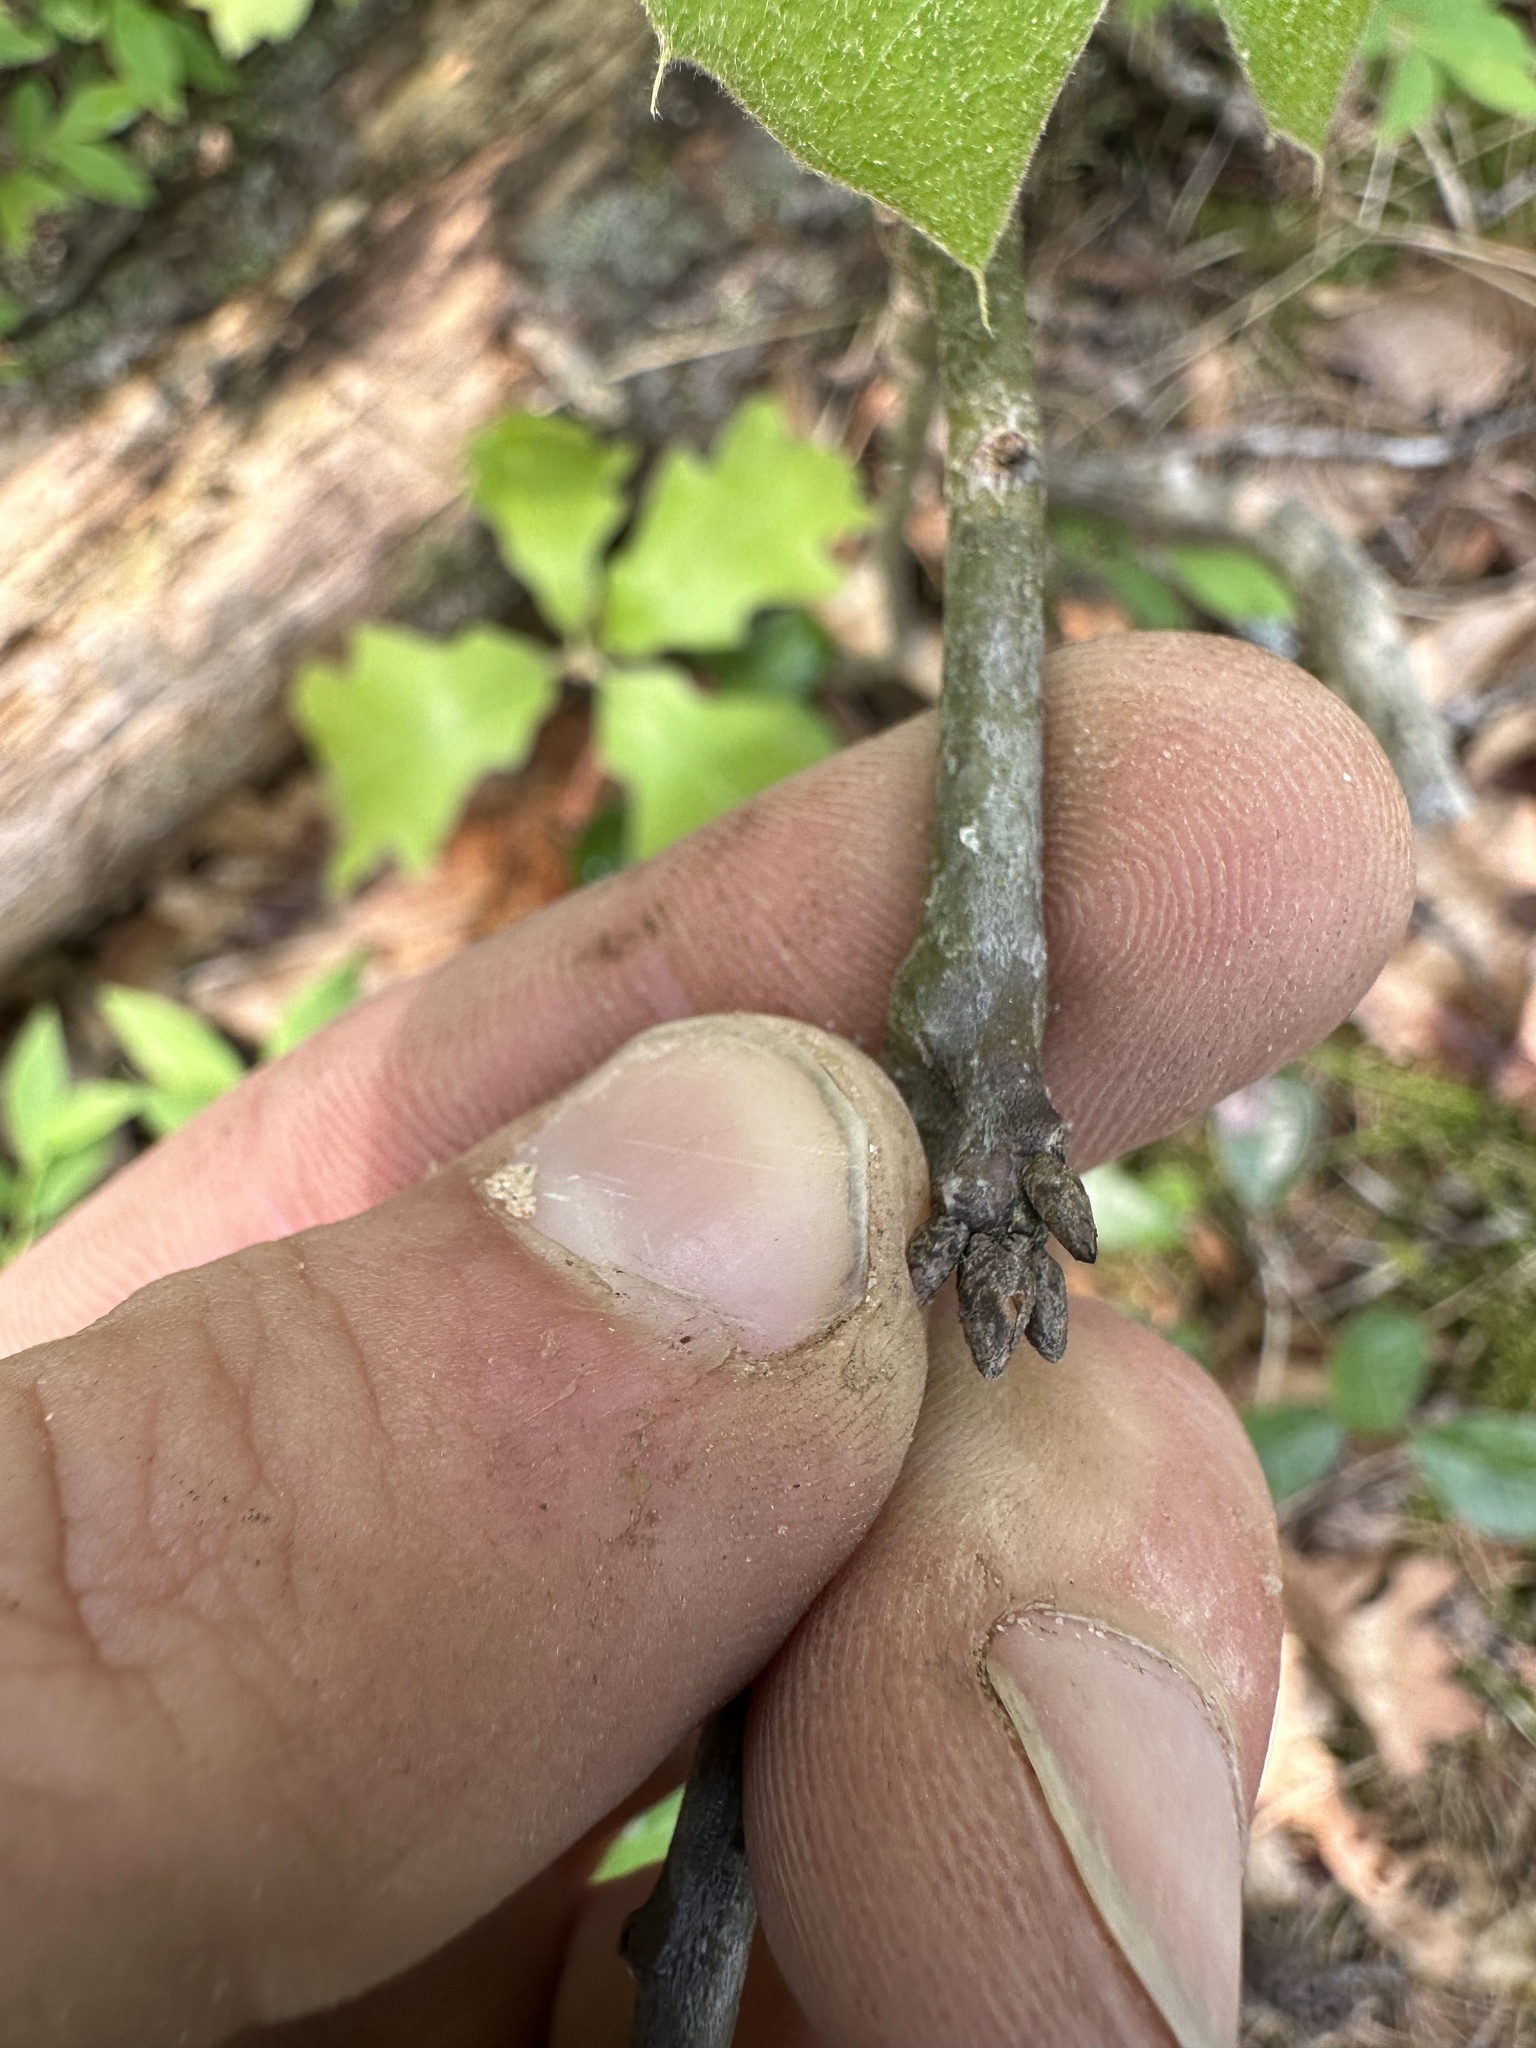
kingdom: Plantae
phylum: Tracheophyta
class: Magnoliopsida
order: Fagales
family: Fagaceae
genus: Quercus
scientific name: Quercus rubra
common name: Red oak
